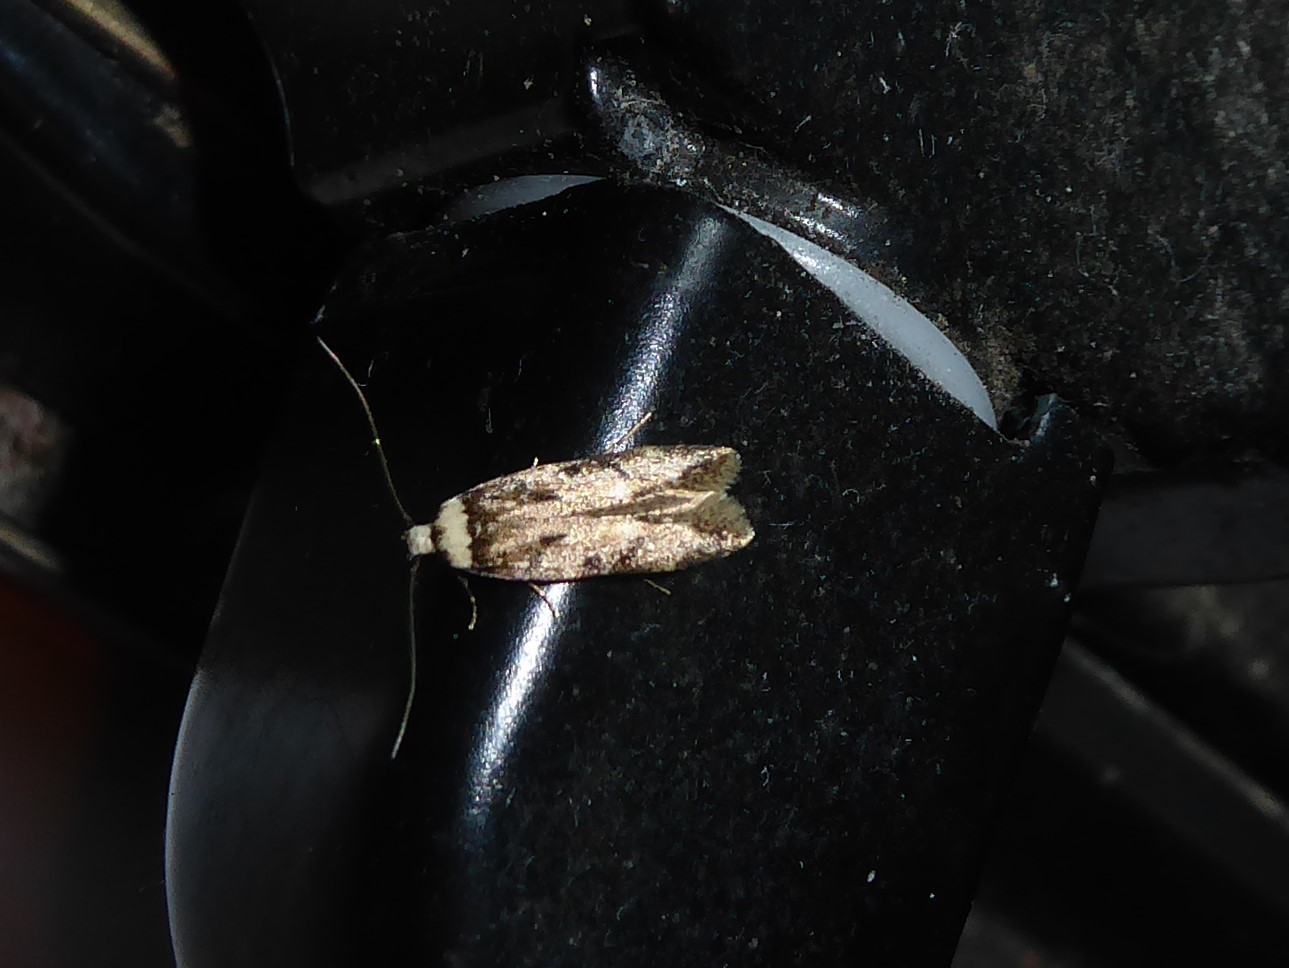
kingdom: Animalia
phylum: Arthropoda
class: Insecta
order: Lepidoptera
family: Oecophoridae
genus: Endrosis
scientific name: Endrosis sarcitrella
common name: White-shouldered house moth
